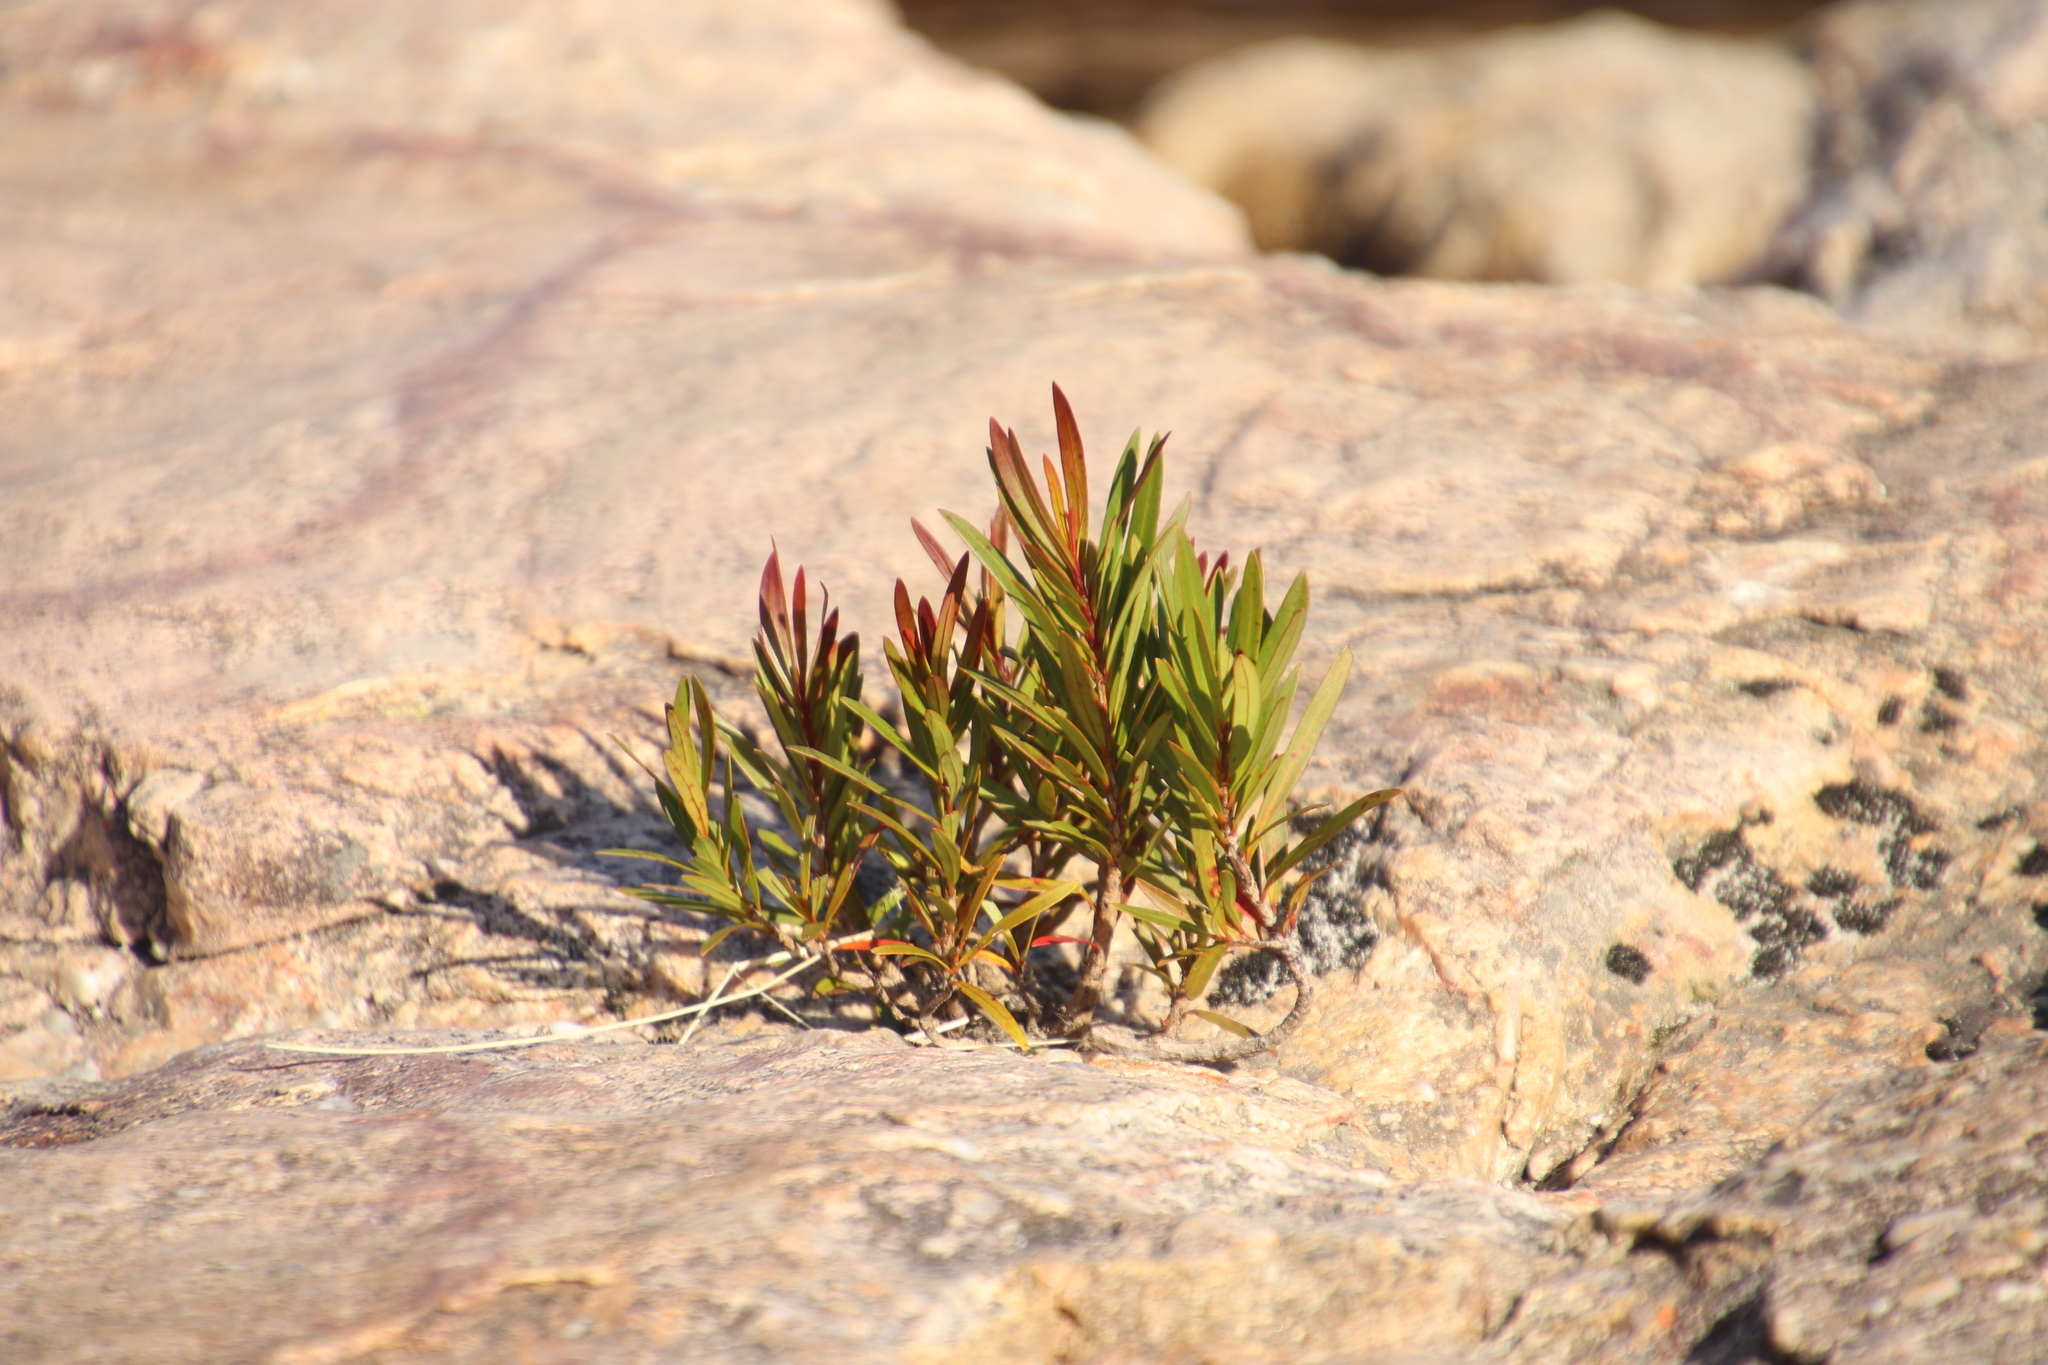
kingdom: Plantae
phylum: Tracheophyta
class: Magnoliopsida
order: Myrtales
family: Myrtaceae
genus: Callistemon
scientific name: Callistemon lanceolatus
